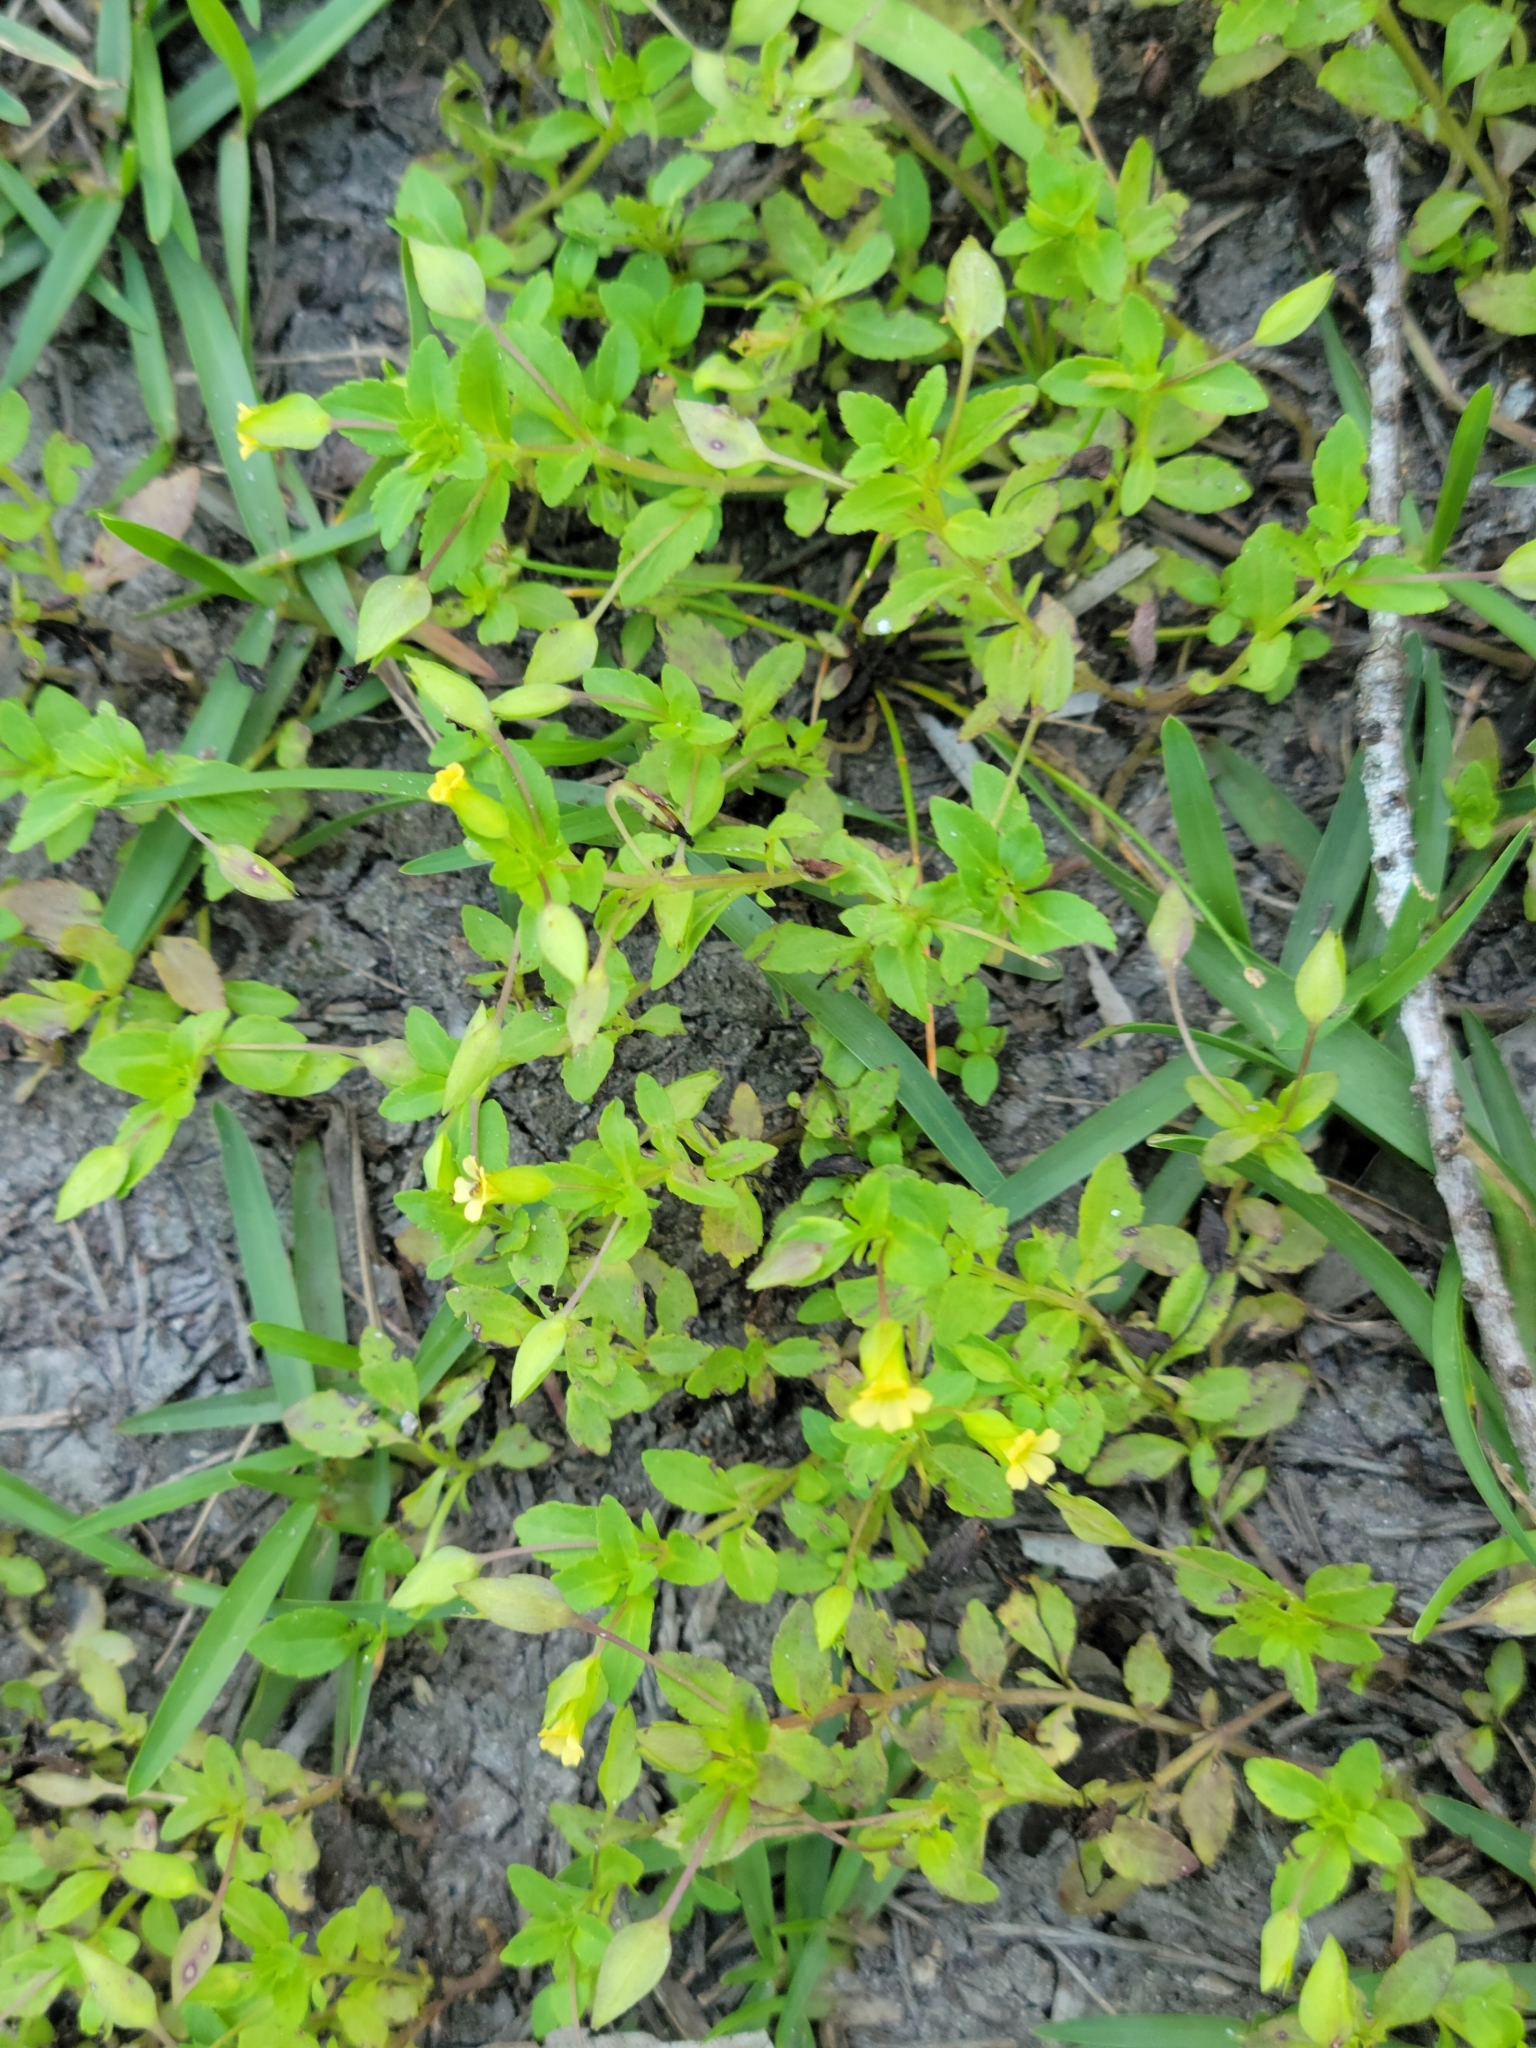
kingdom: Plantae
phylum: Tracheophyta
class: Magnoliopsida
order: Lamiales
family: Plantaginaceae
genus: Mecardonia
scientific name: Mecardonia procumbens
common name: Baby jump-up
